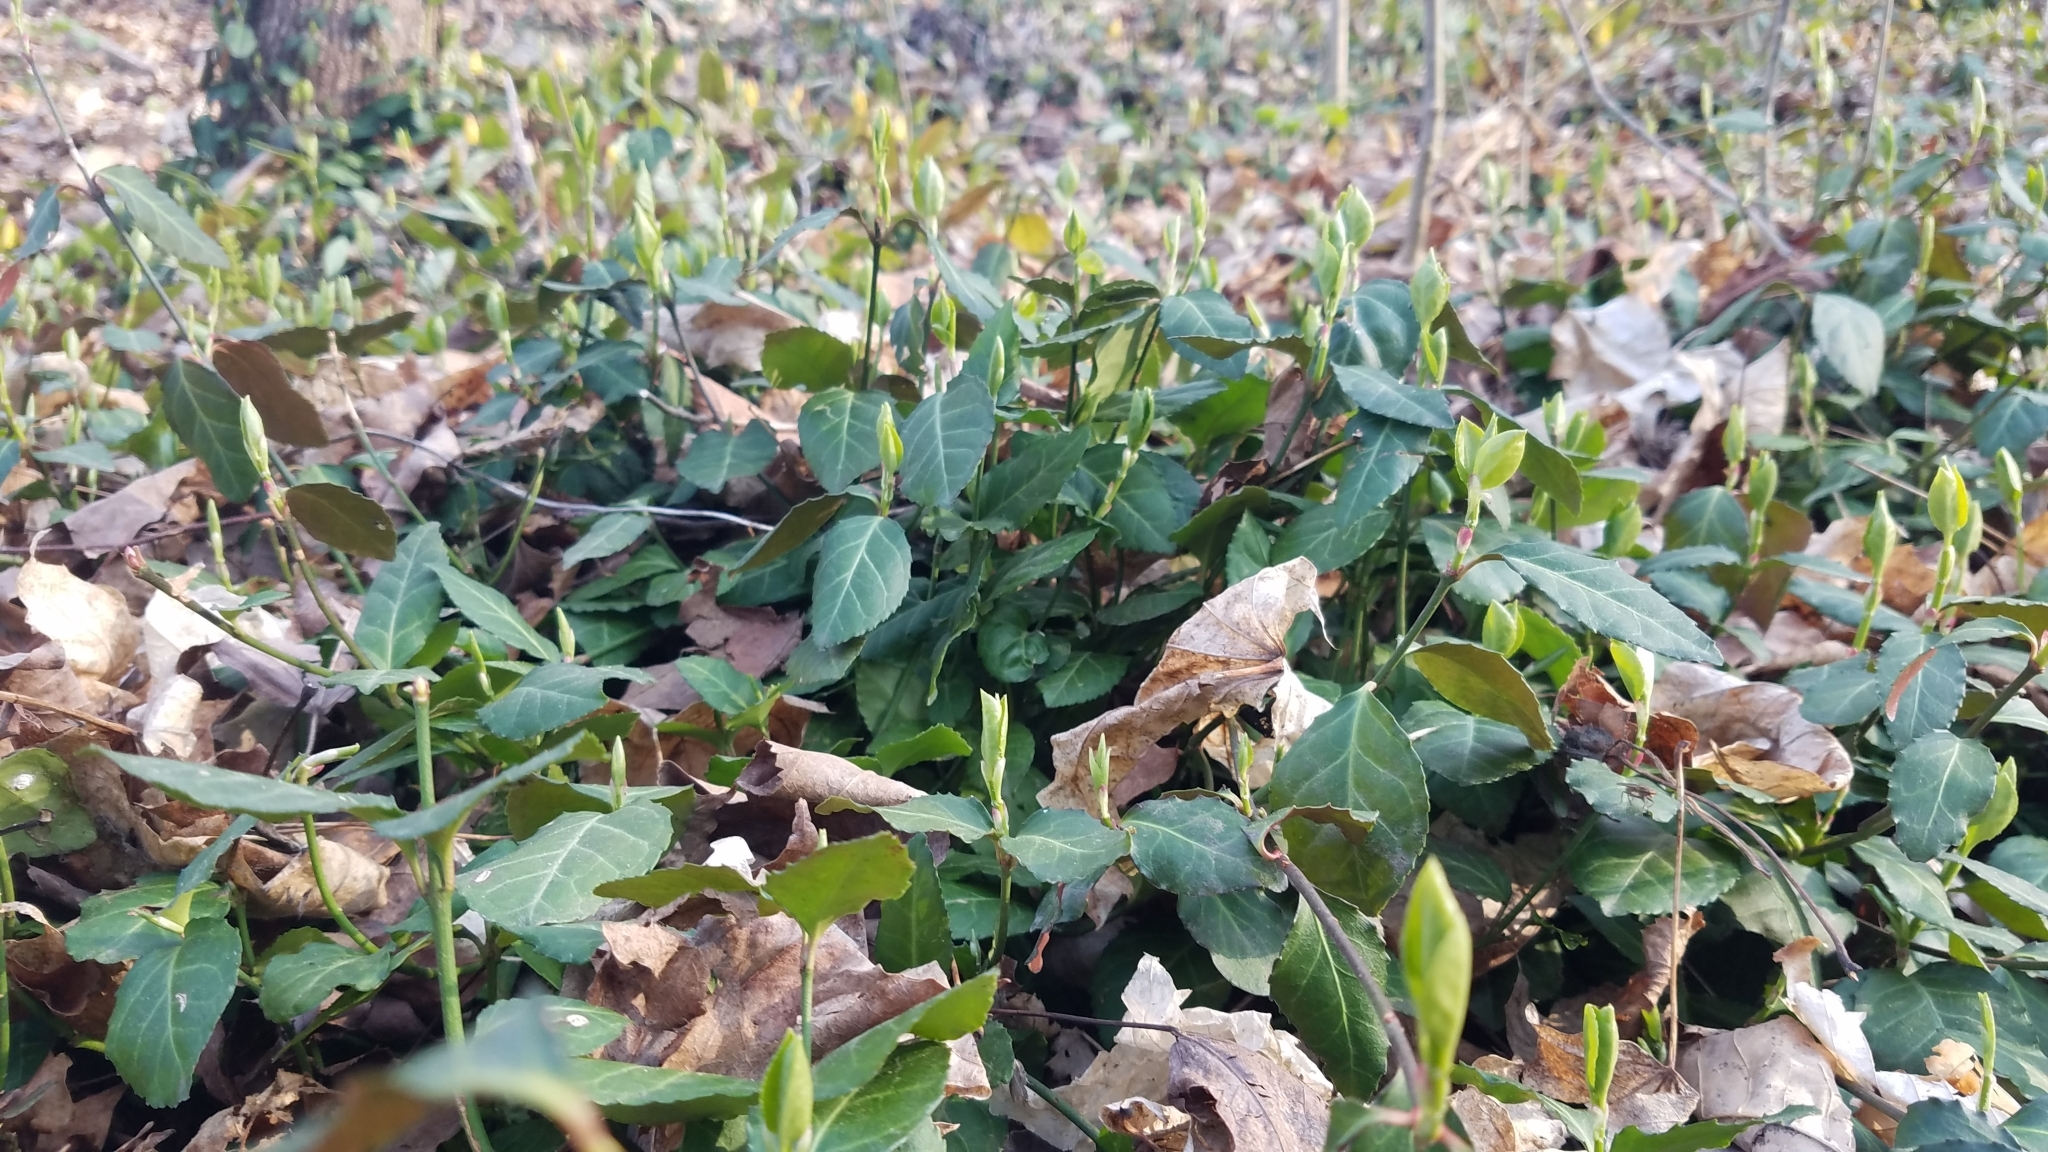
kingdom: Plantae
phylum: Tracheophyta
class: Magnoliopsida
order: Celastrales
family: Celastraceae
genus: Euonymus
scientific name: Euonymus fortunei
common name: Climbing euonymus
